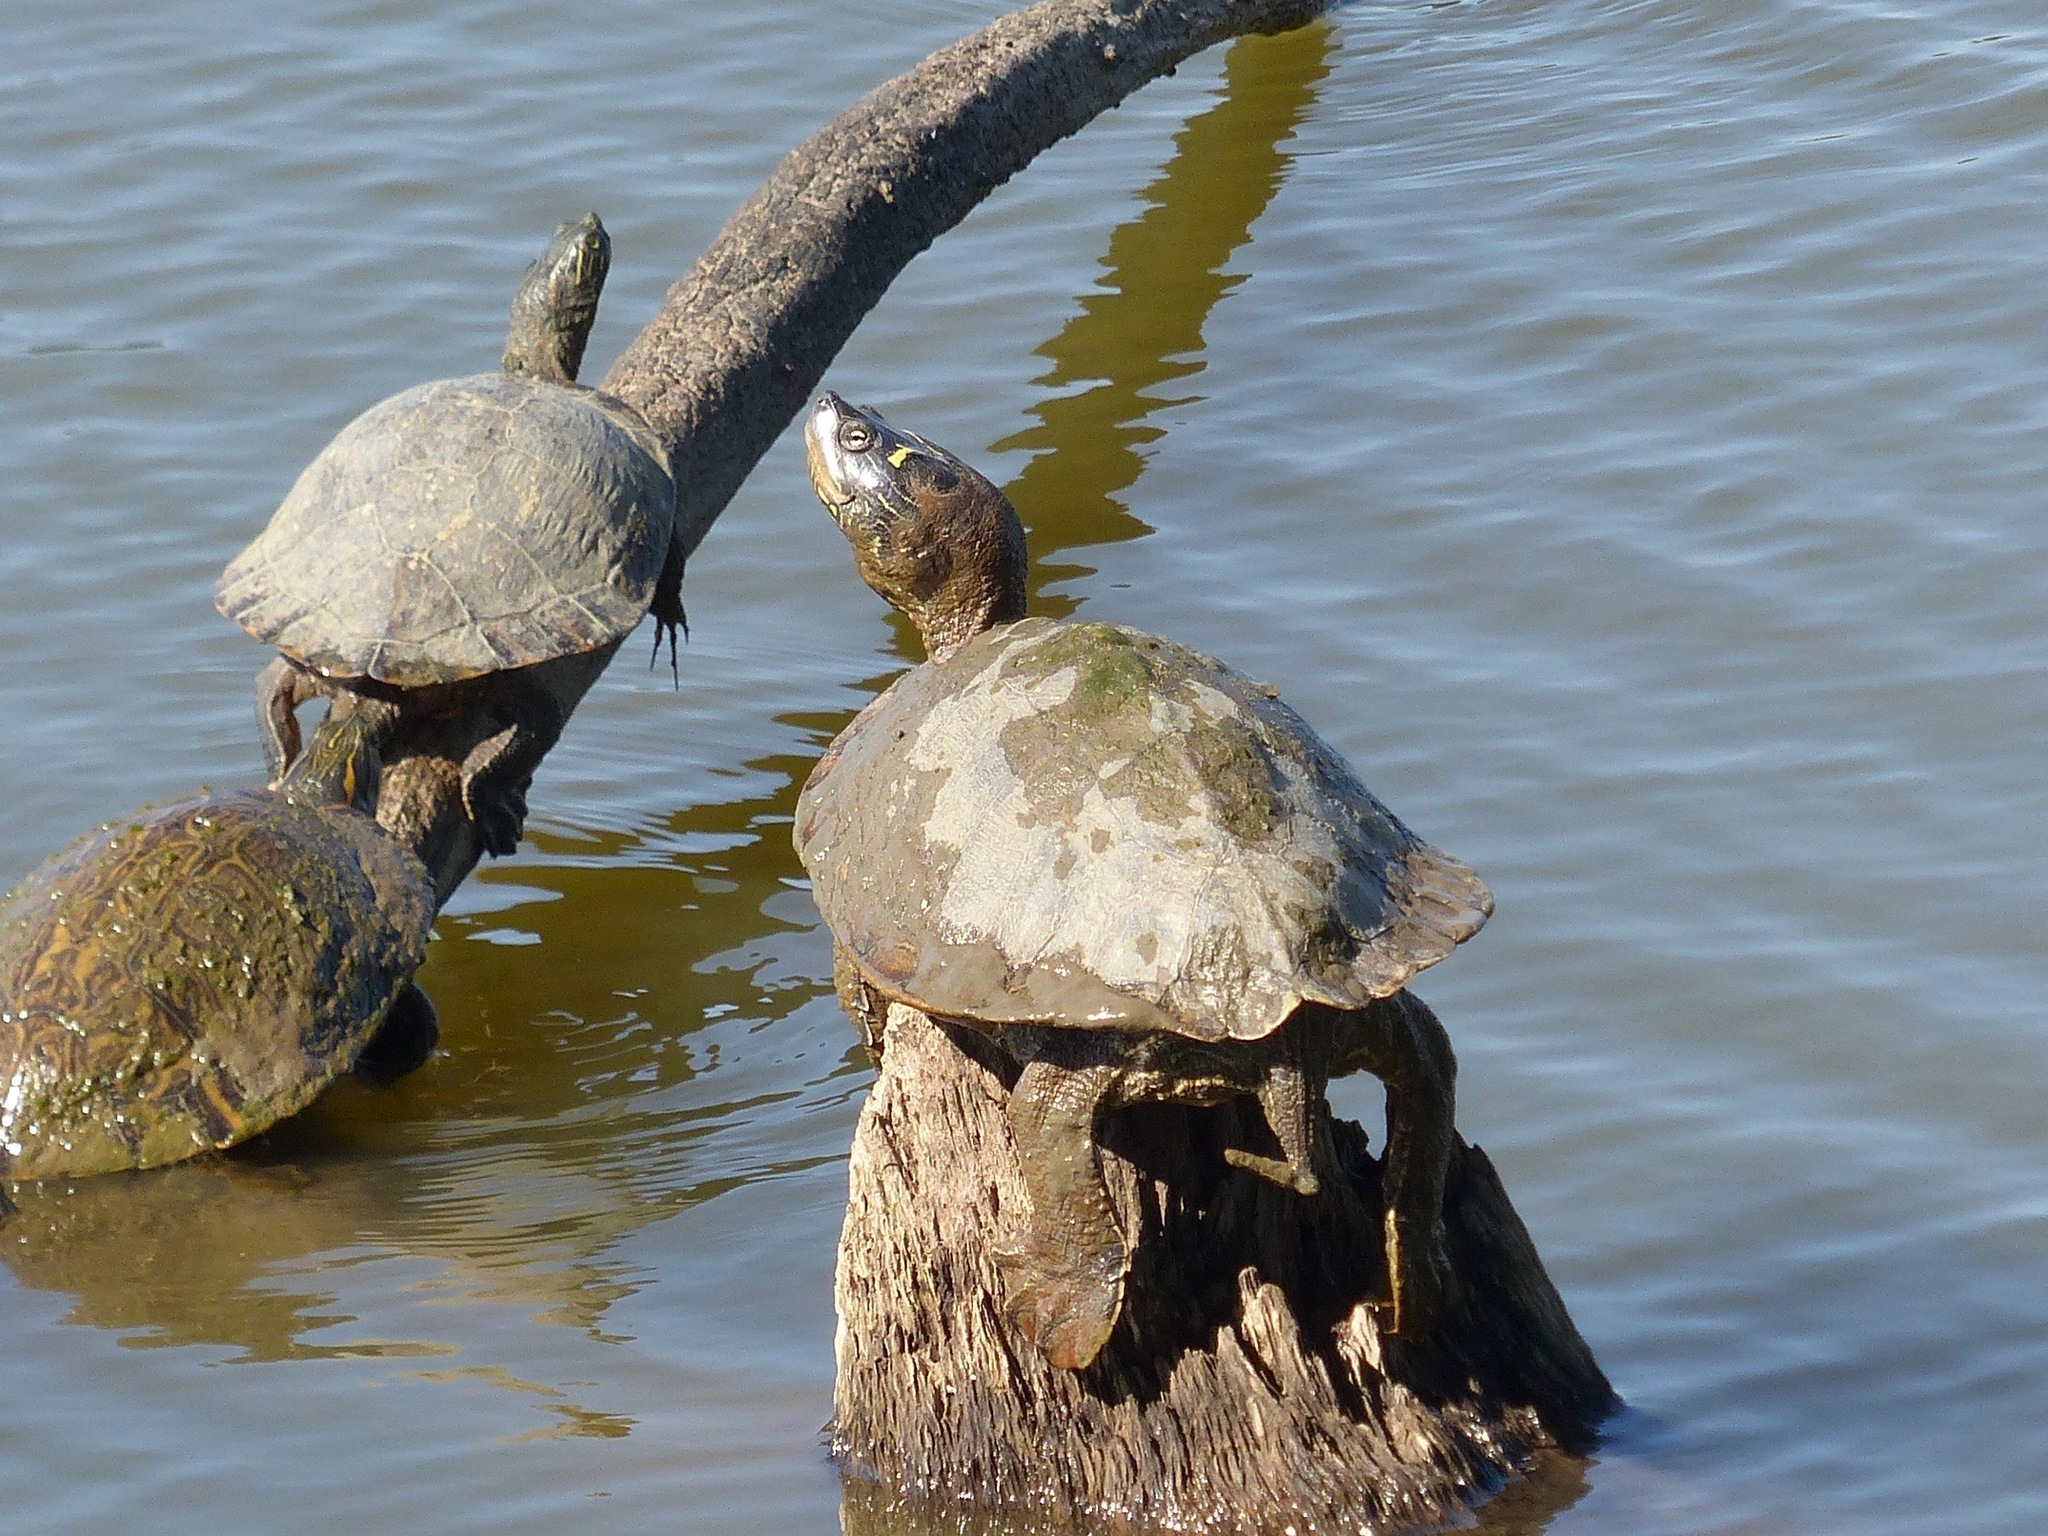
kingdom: Animalia
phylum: Chordata
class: Testudines
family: Emydidae
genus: Graptemys
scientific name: Graptemys pseudogeographica
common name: False map turtle
